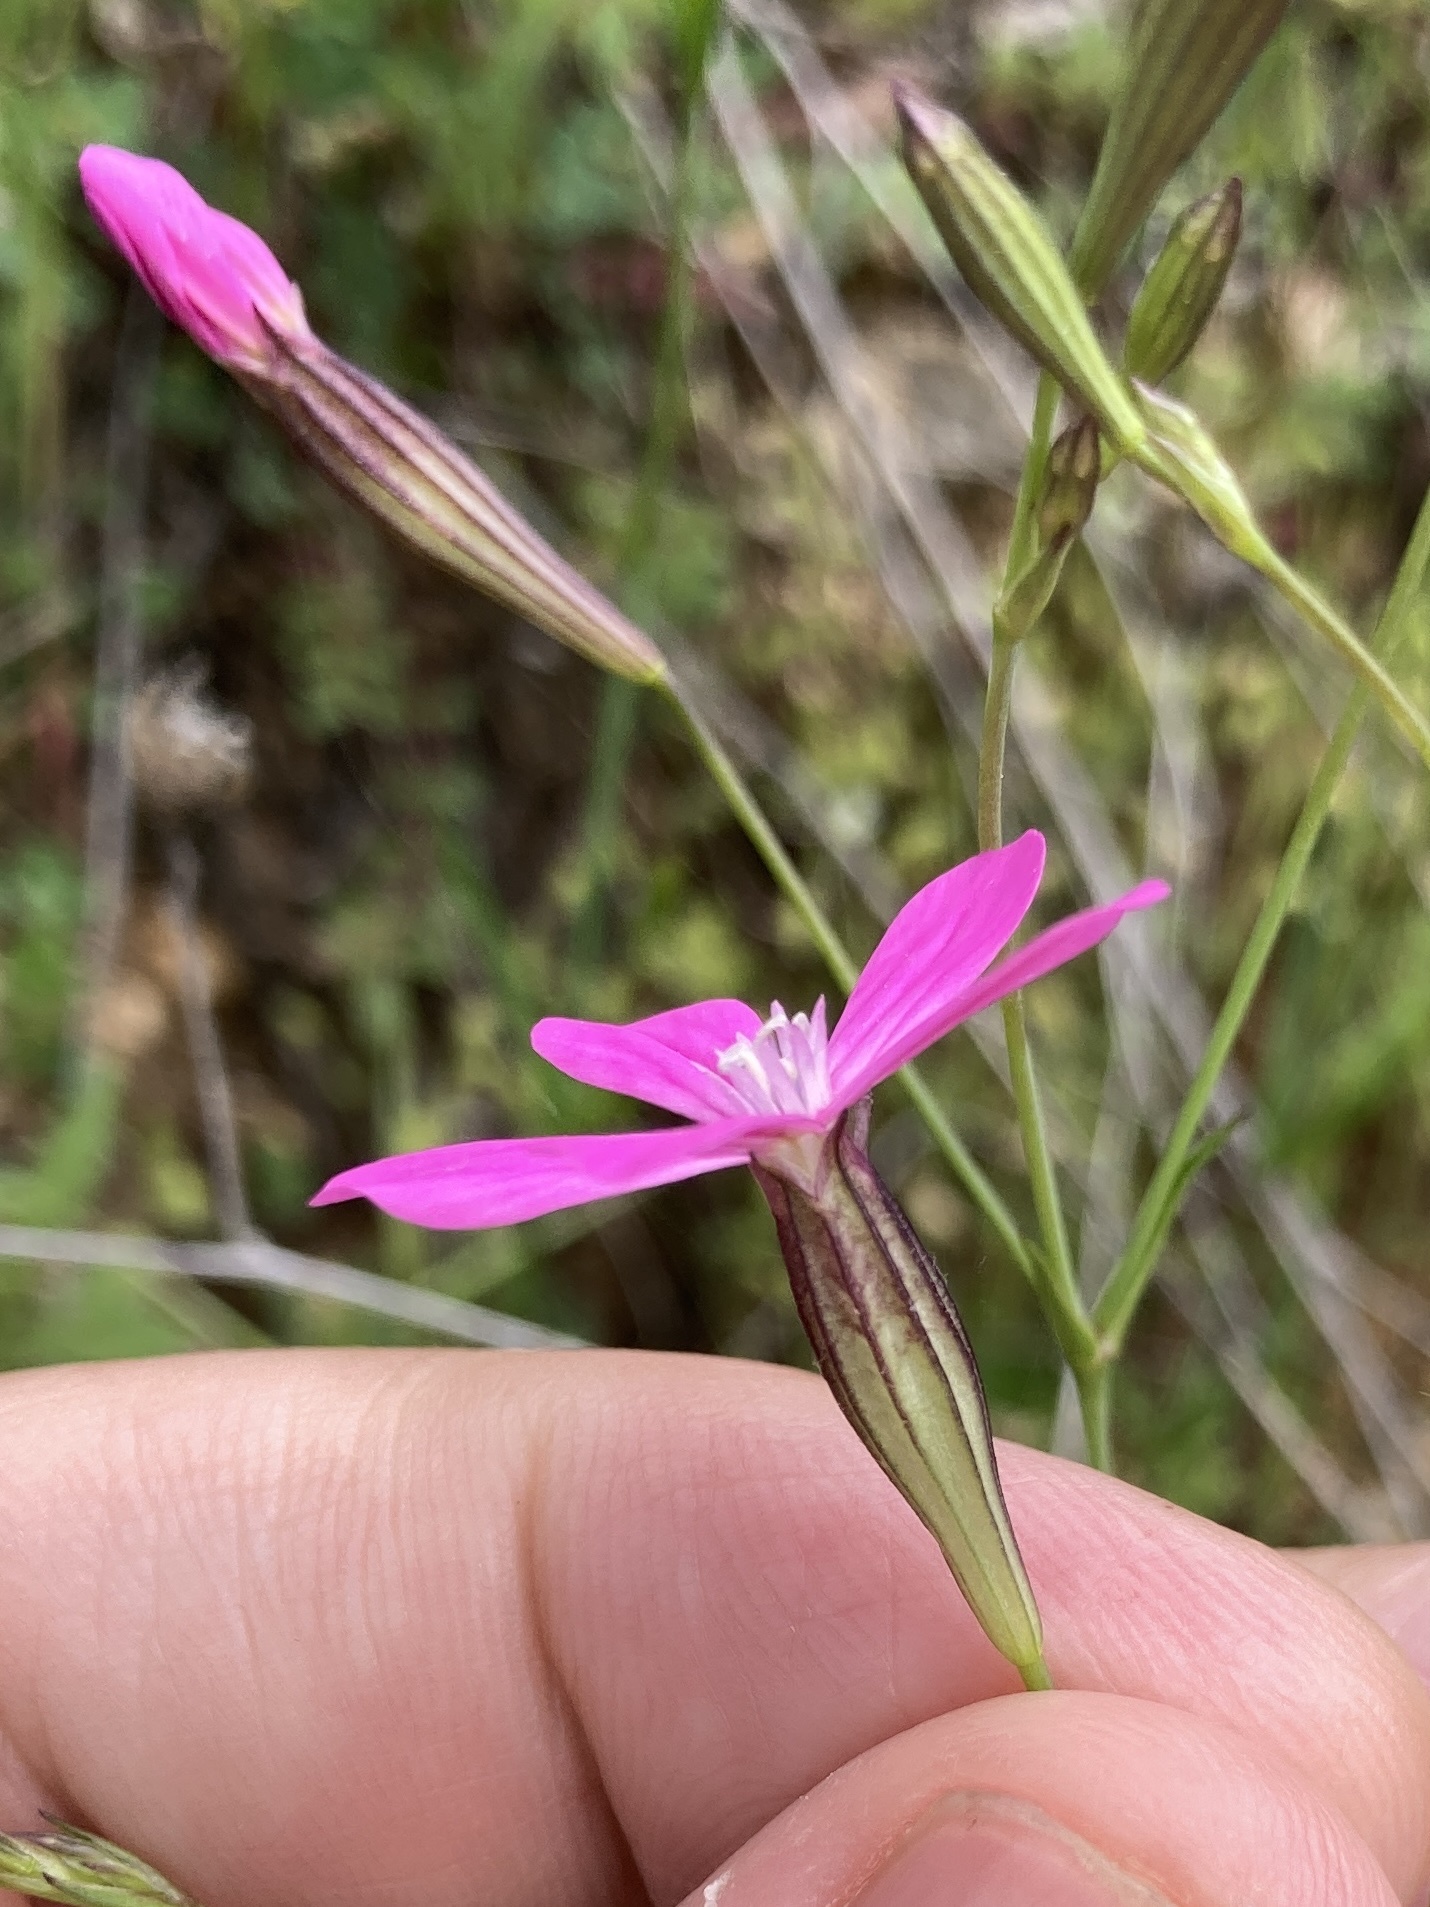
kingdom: Plantae
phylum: Tracheophyta
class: Magnoliopsida
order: Caryophyllales
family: Caryophyllaceae
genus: Silene
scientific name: Silene ungeri
